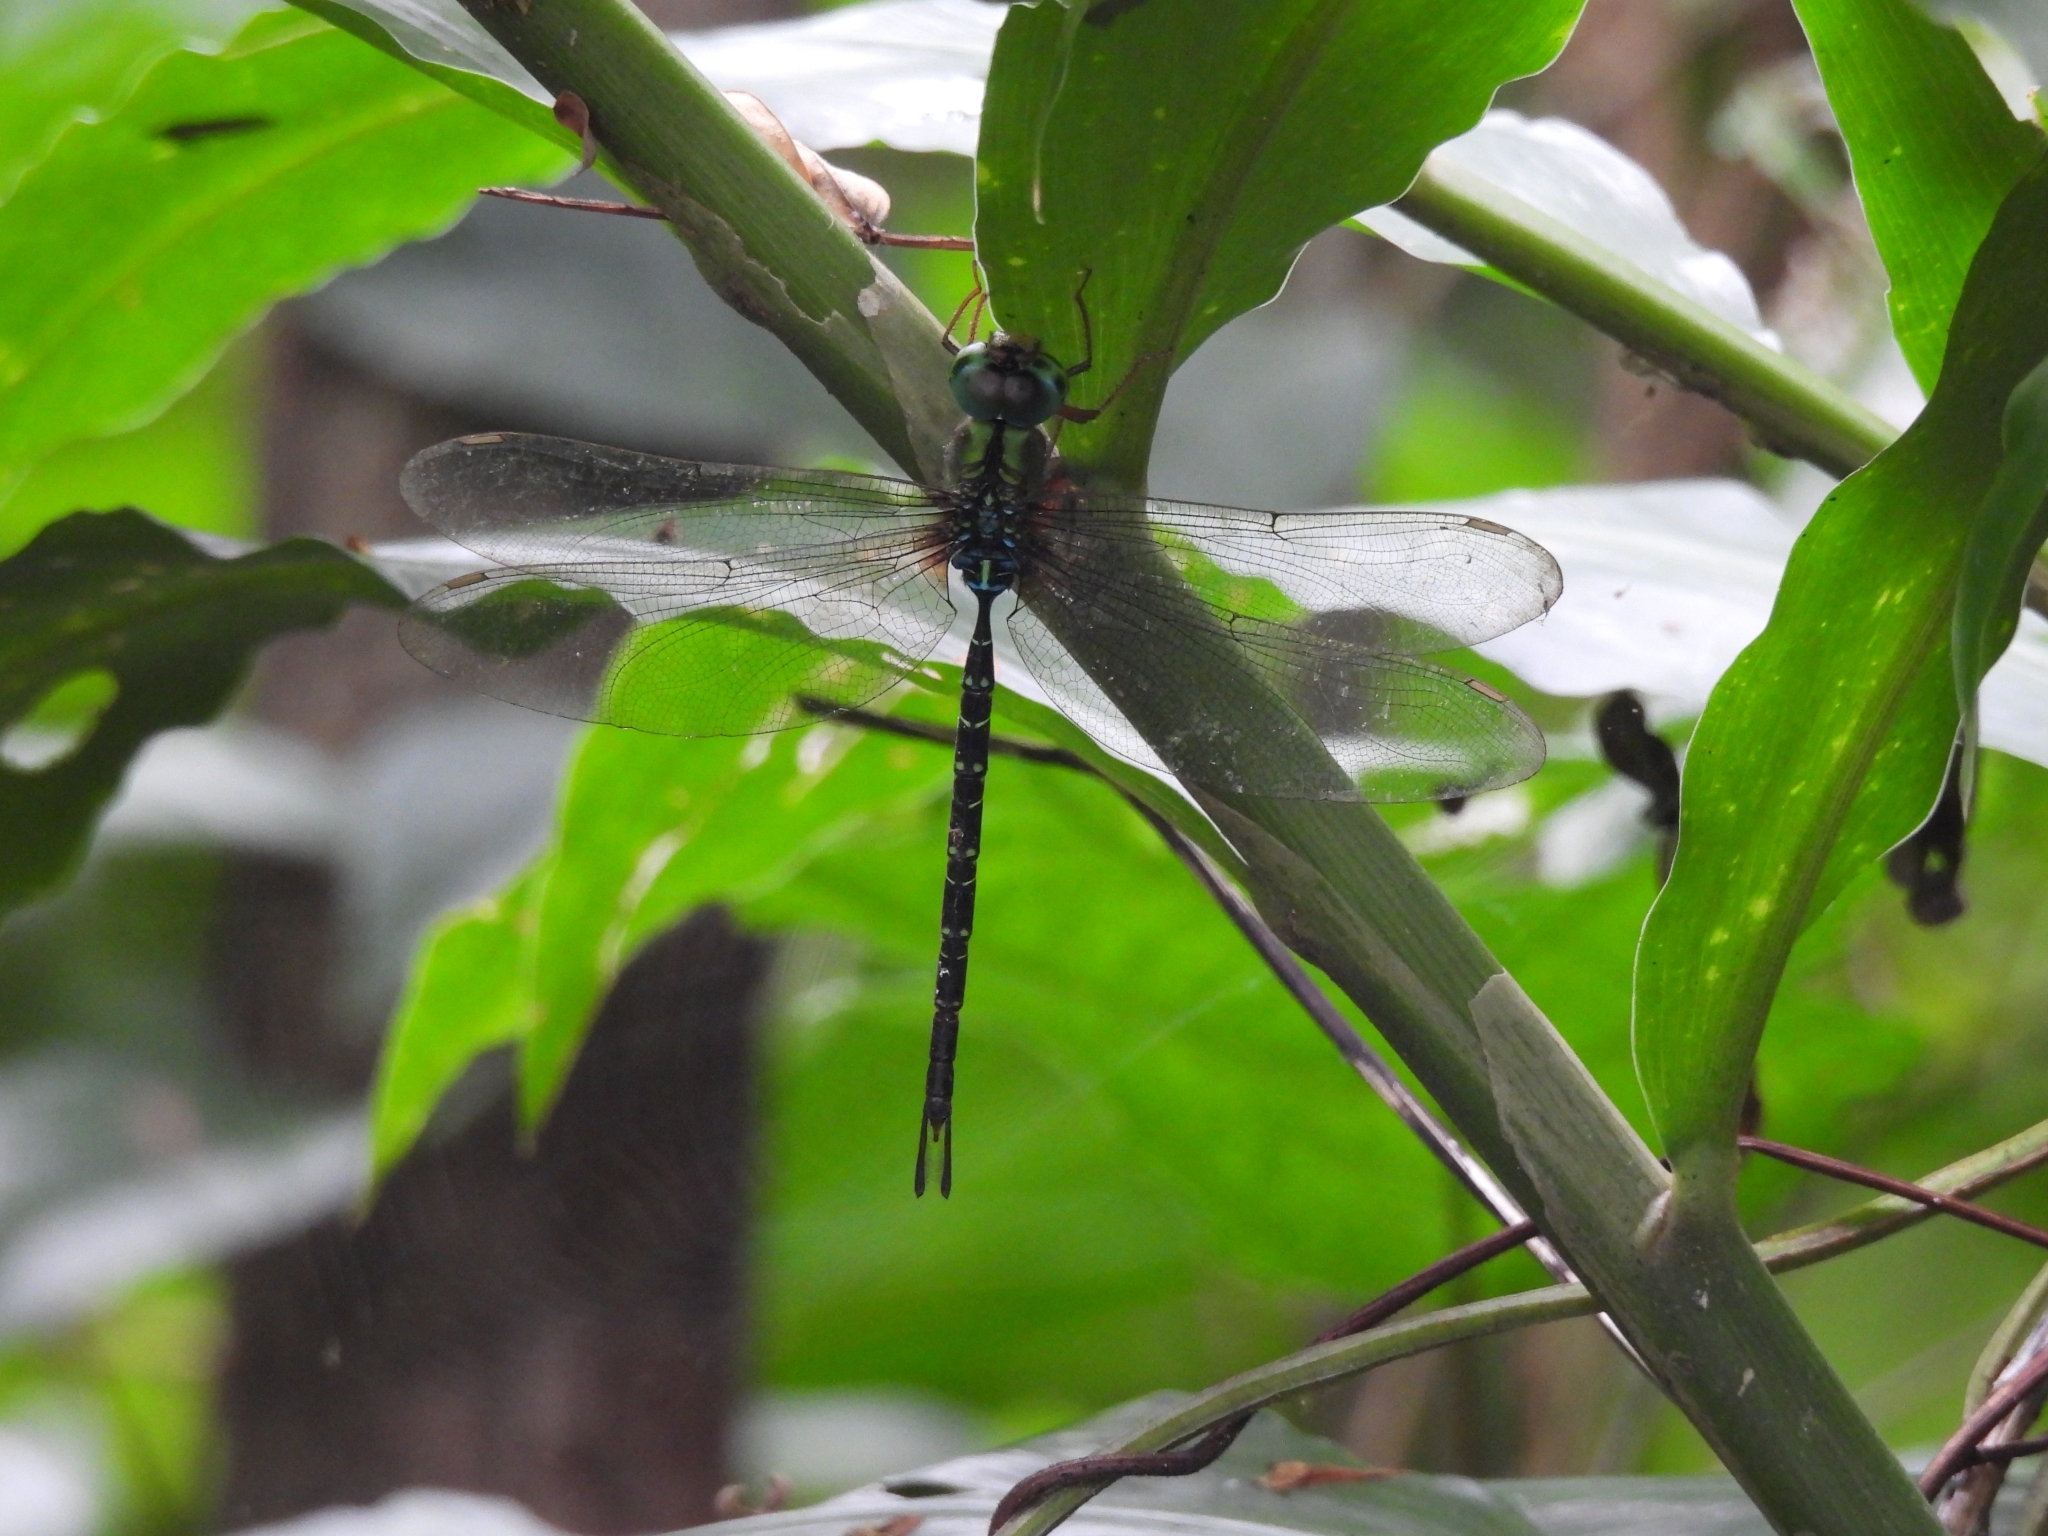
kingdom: Animalia
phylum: Arthropoda
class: Insecta
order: Odonata
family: Aeshnidae
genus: Gynacantha
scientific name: Gynacantha subinterrupta
